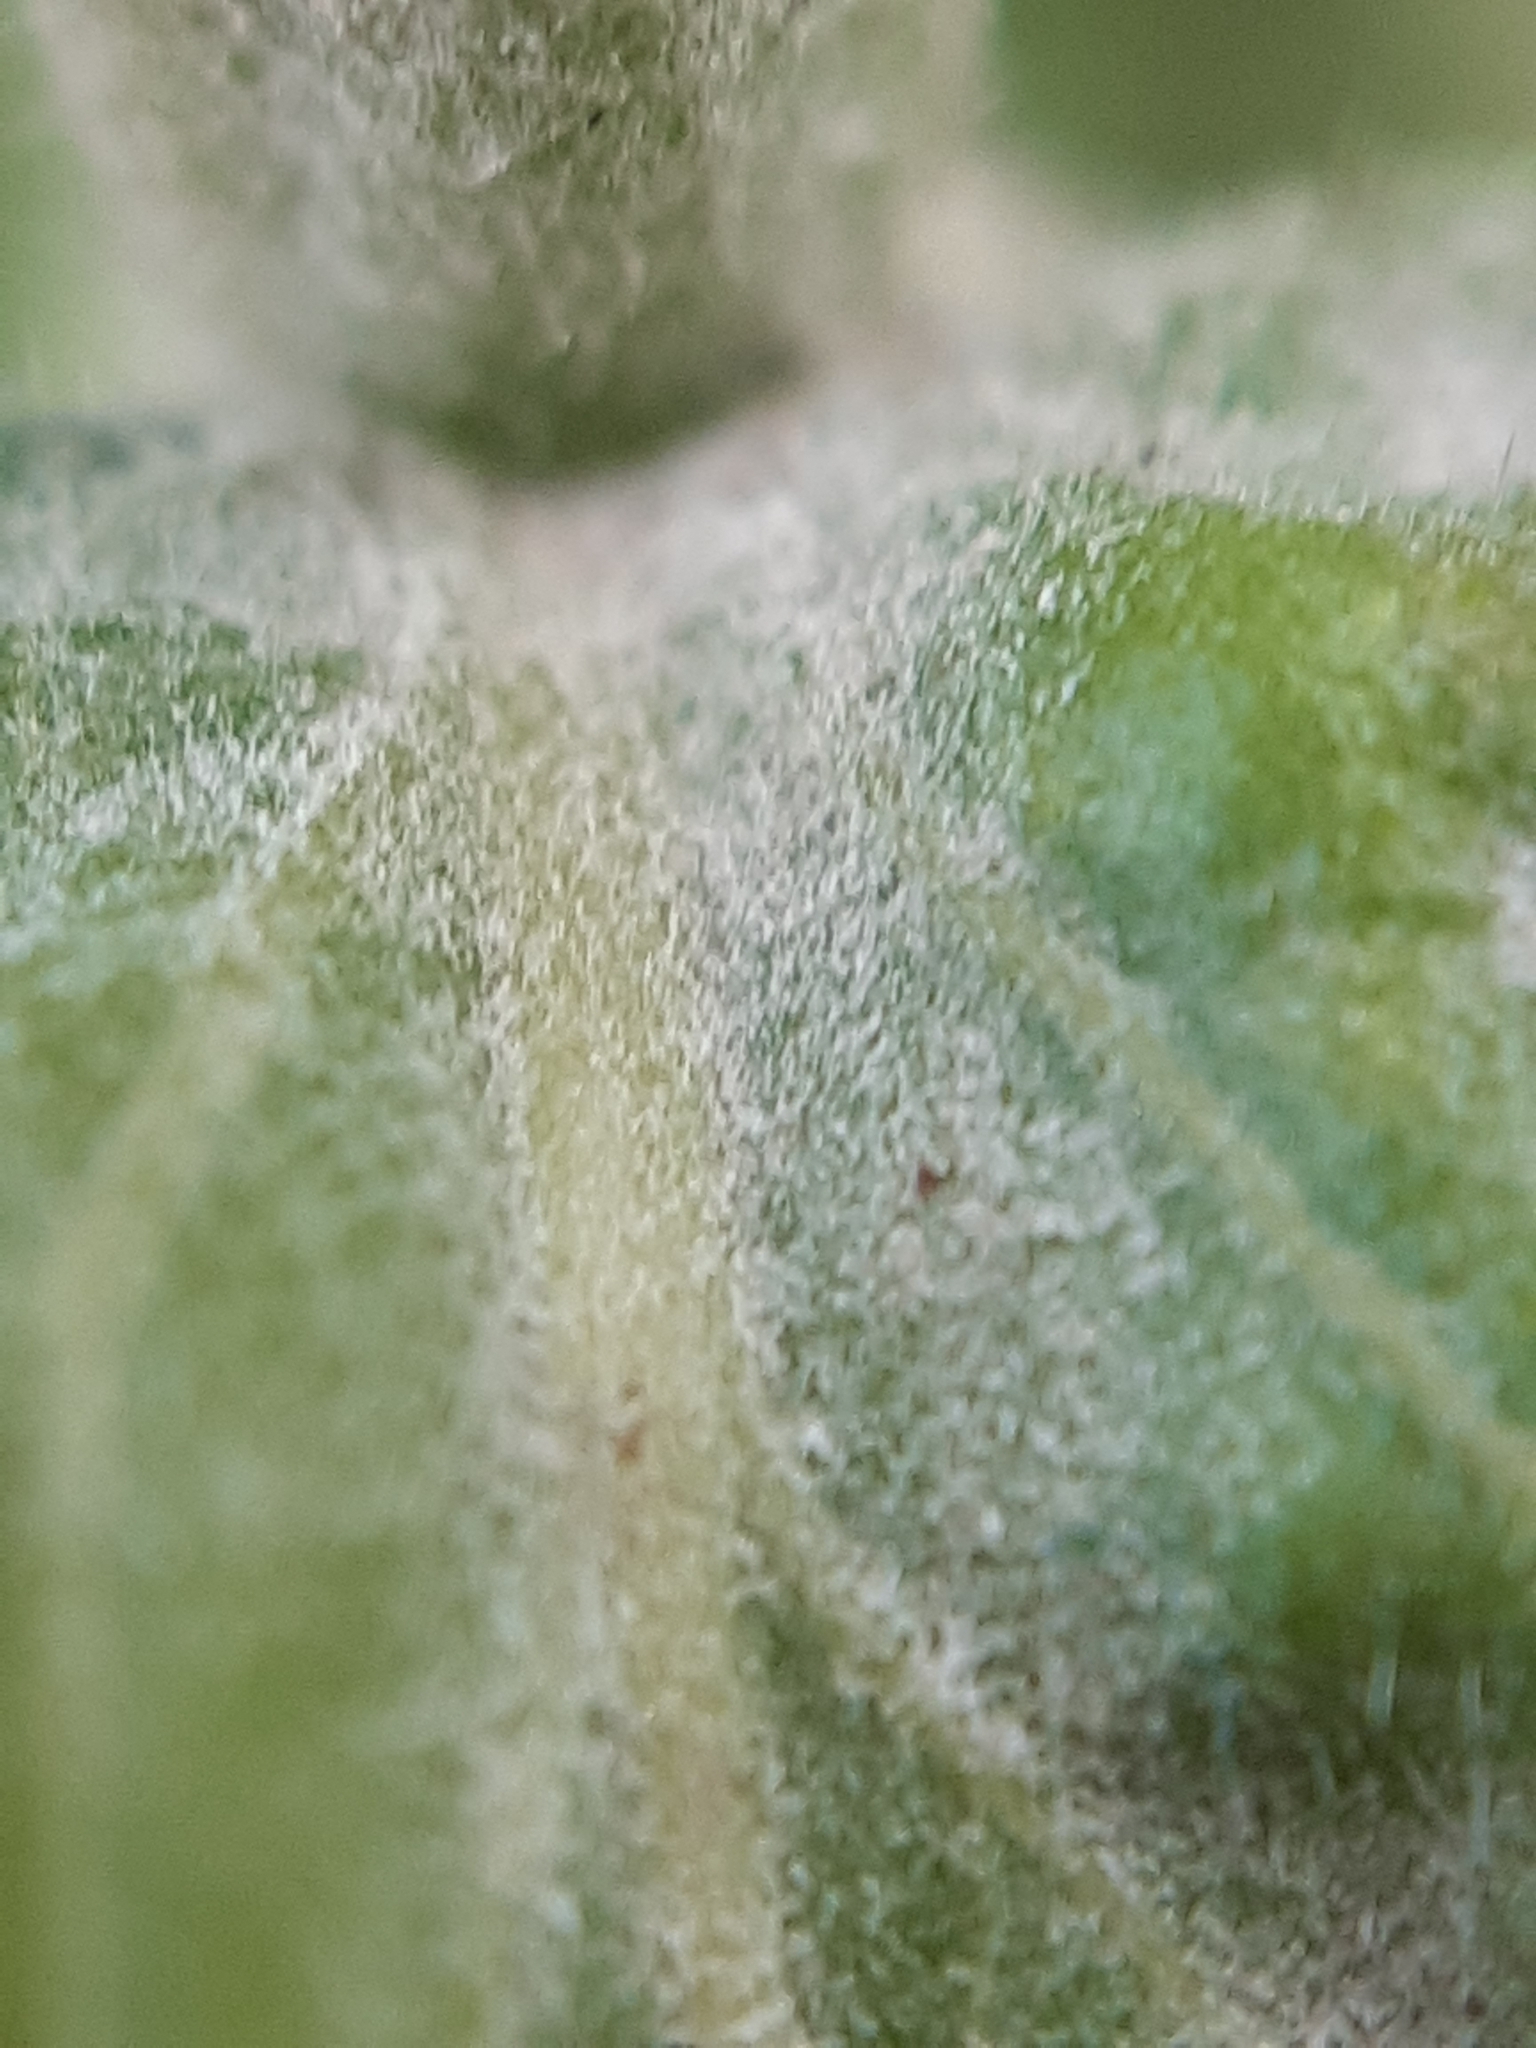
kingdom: Fungi
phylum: Ascomycota
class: Leotiomycetes
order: Helotiales
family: Erysiphaceae
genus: Erysiphe
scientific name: Erysiphe howeana
